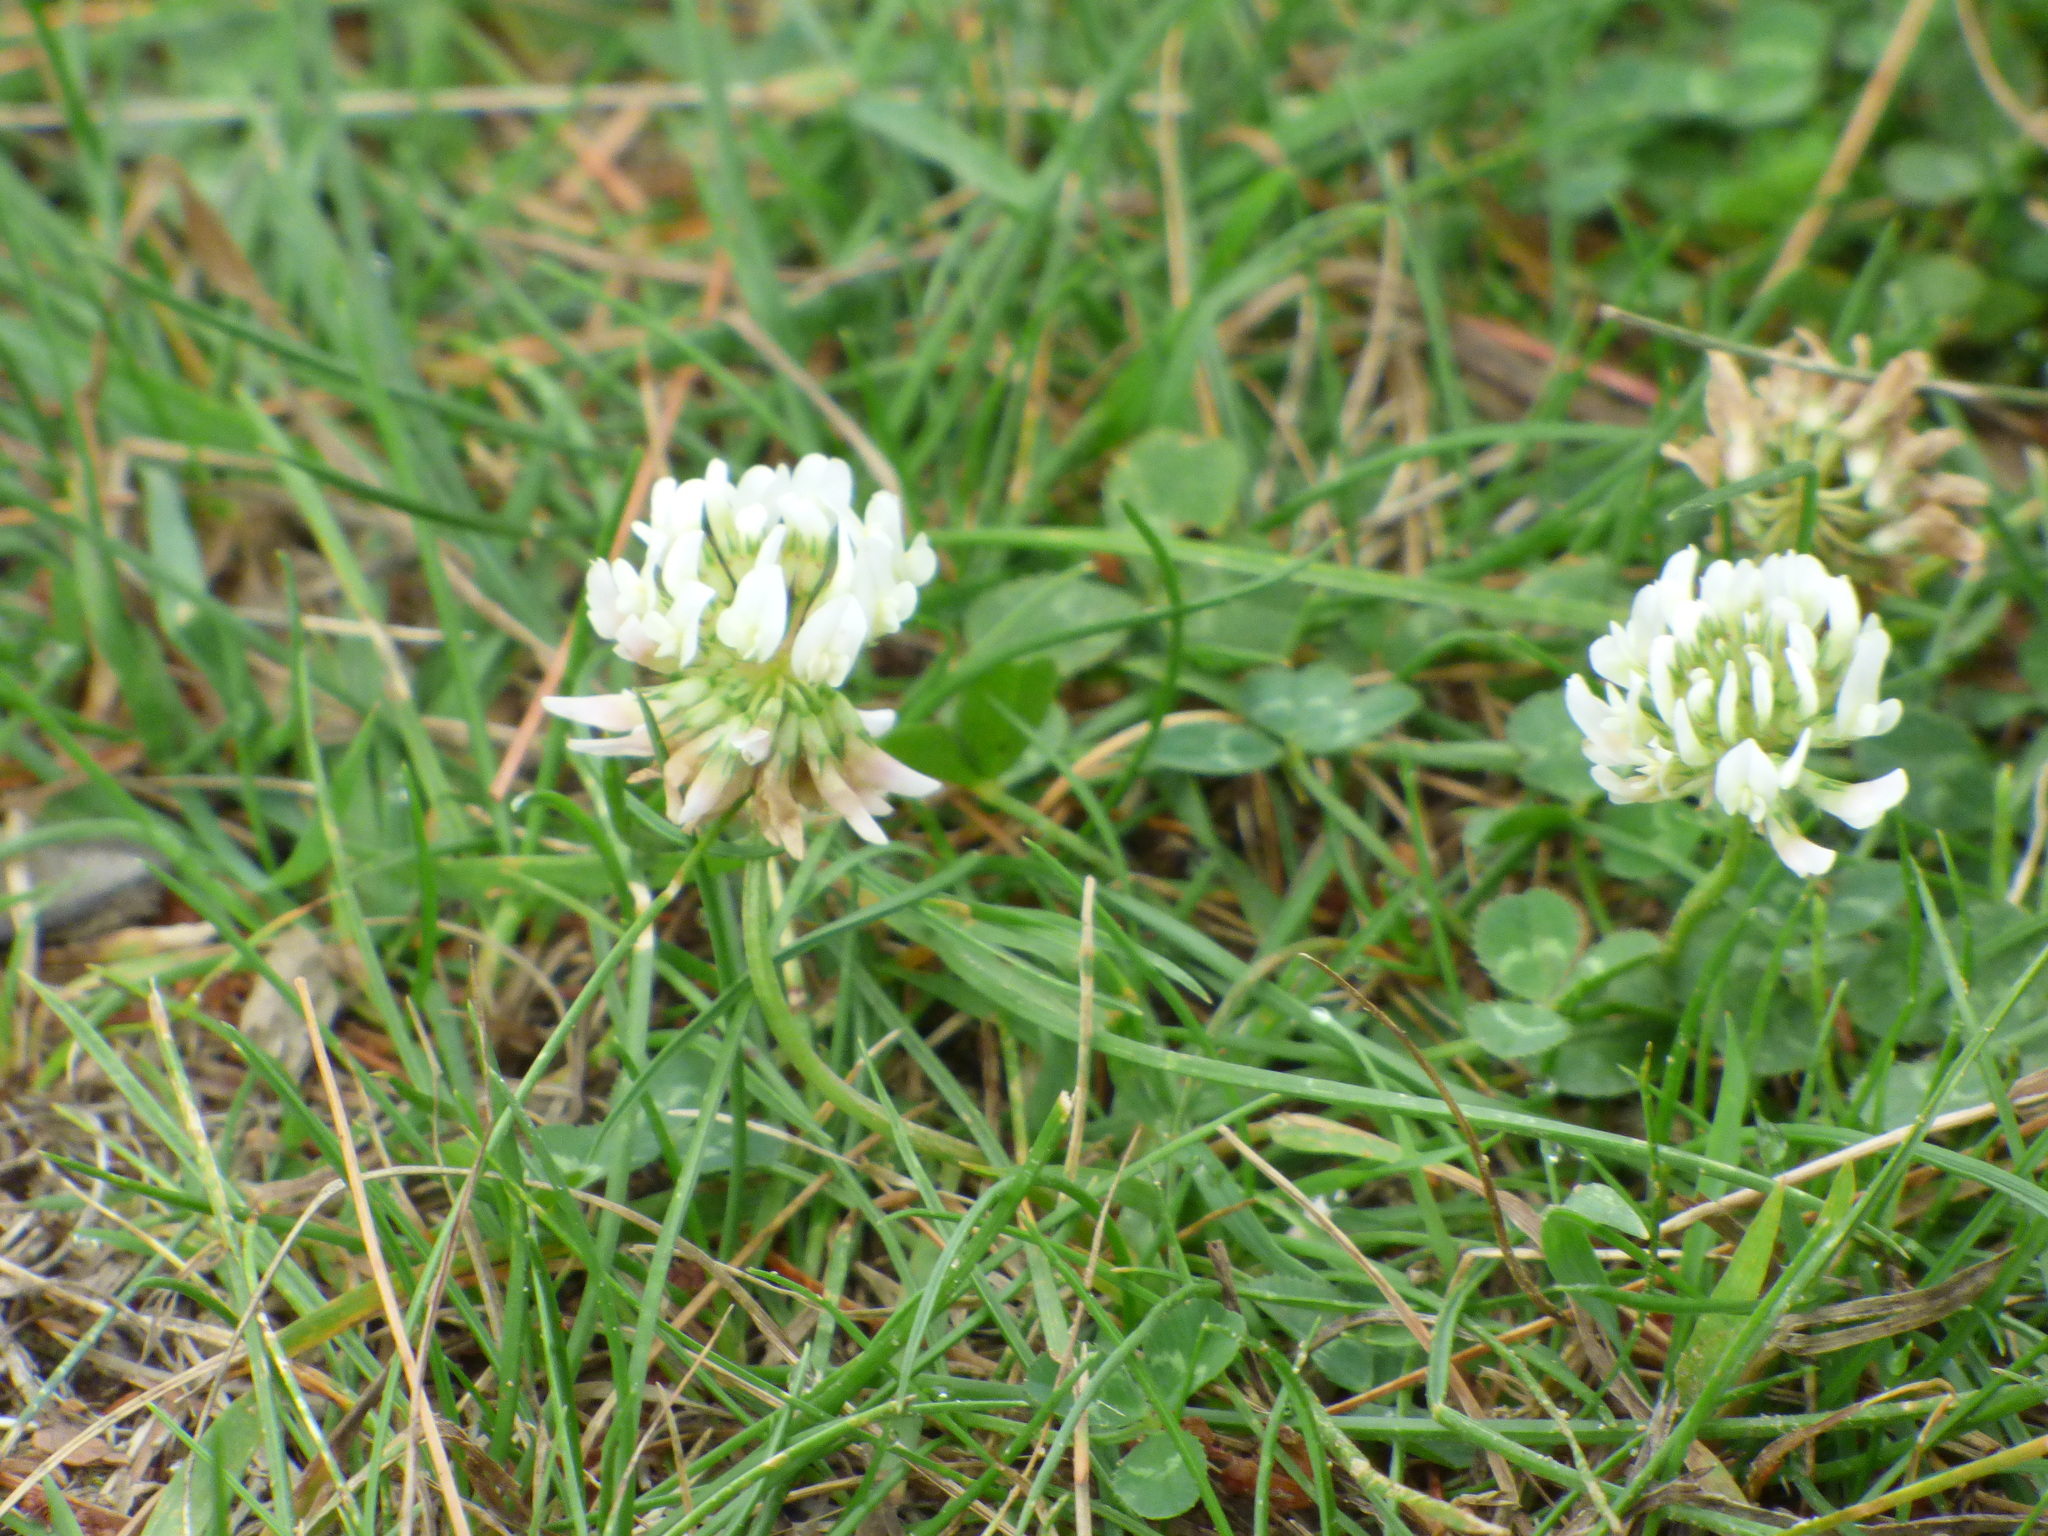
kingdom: Plantae
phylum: Tracheophyta
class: Magnoliopsida
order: Fabales
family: Fabaceae
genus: Trifolium
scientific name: Trifolium repens
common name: White clover
